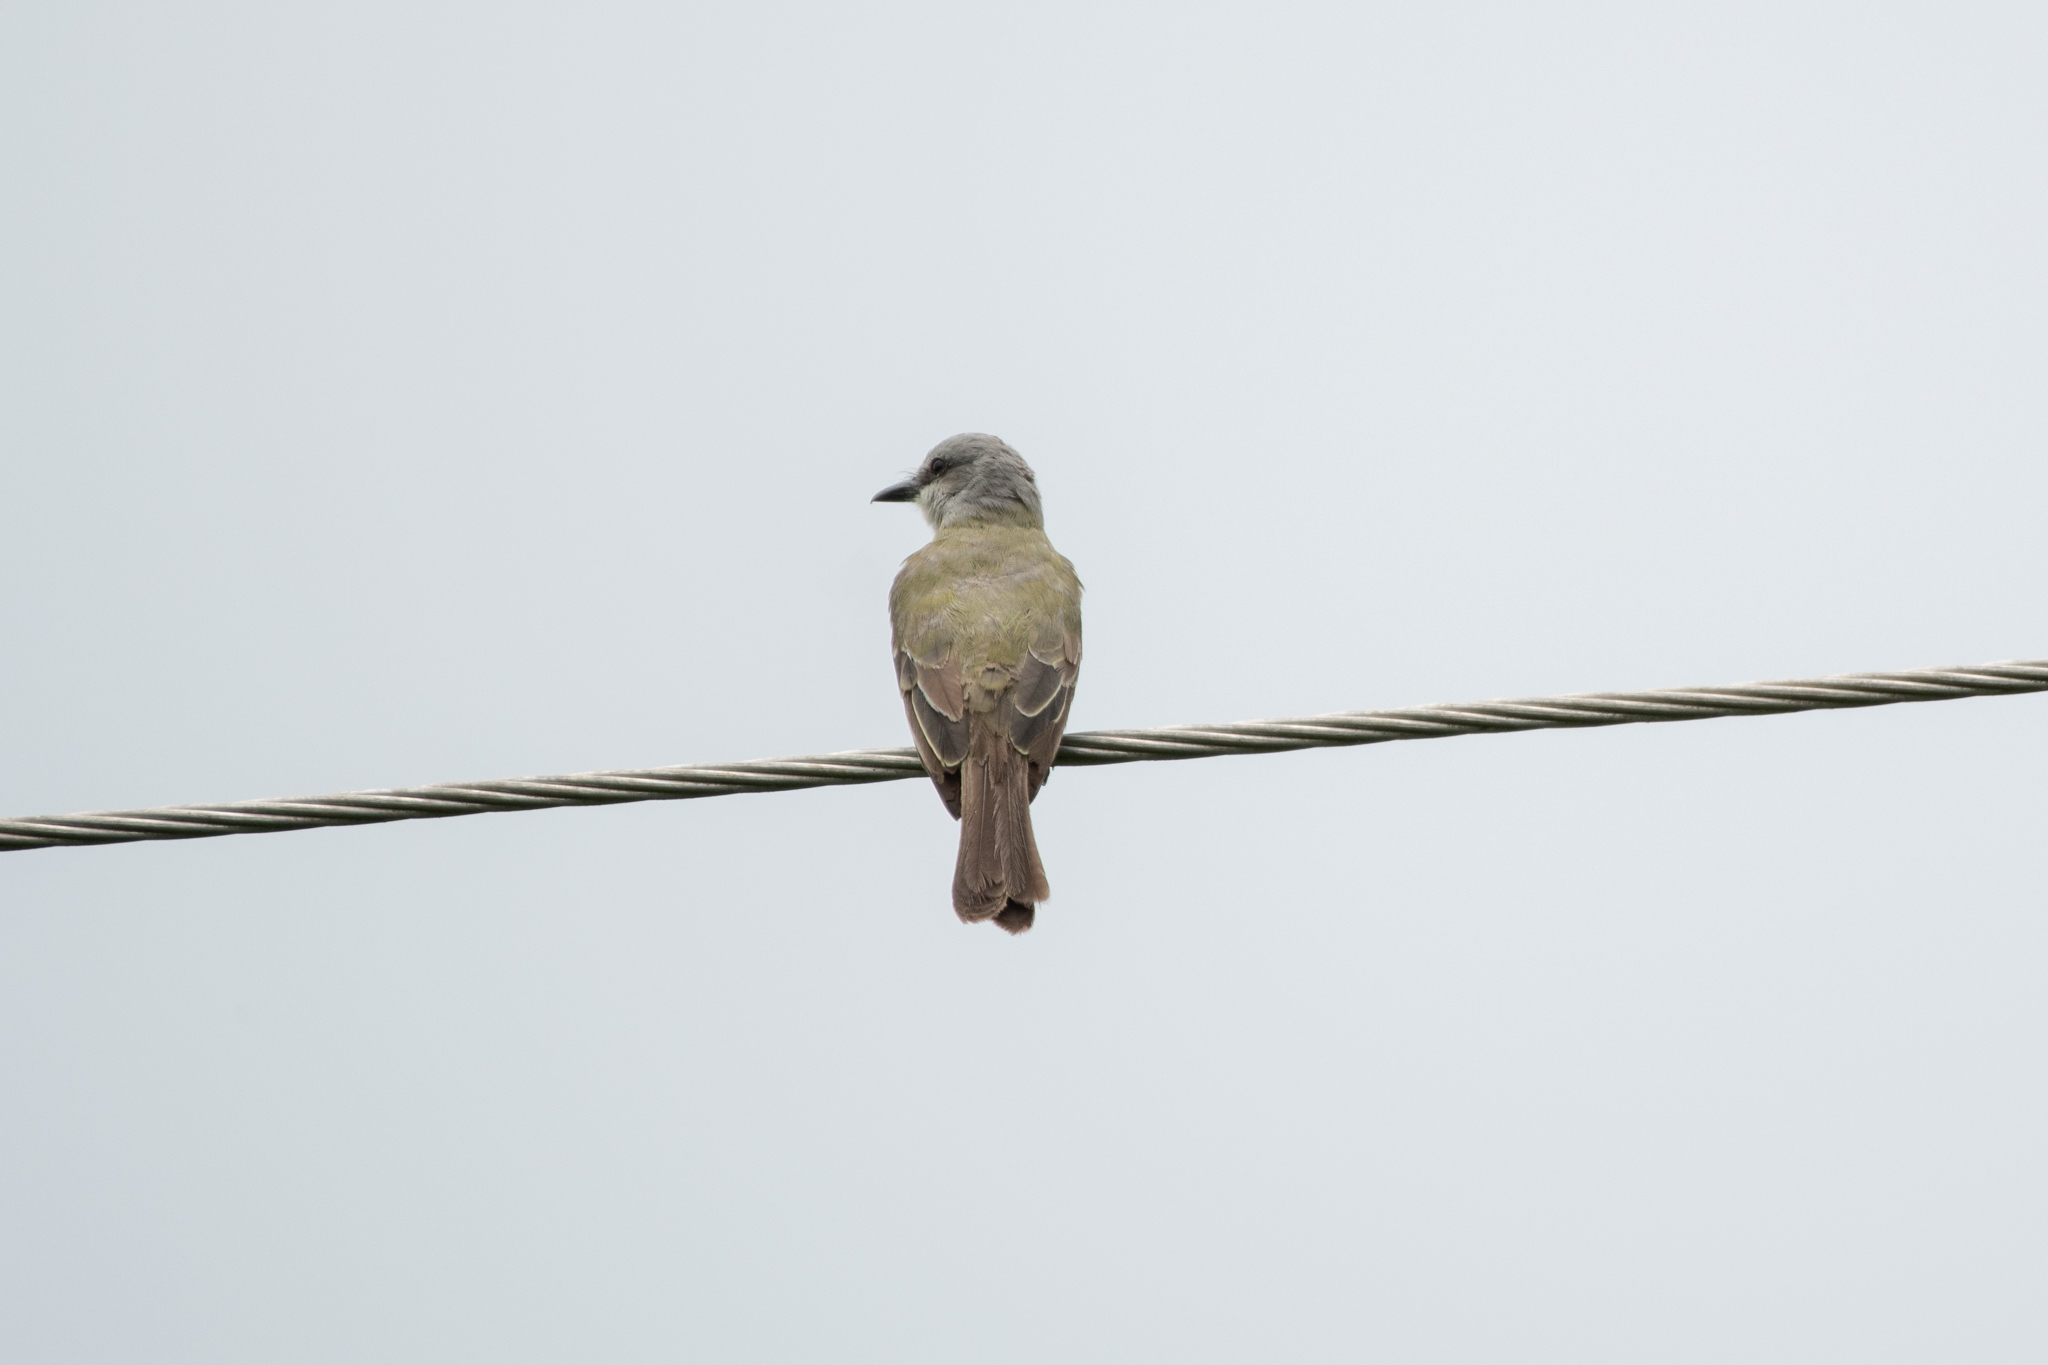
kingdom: Animalia
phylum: Chordata
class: Aves
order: Passeriformes
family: Tyrannidae
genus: Tyrannus
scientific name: Tyrannus melancholicus
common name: Tropical kingbird
